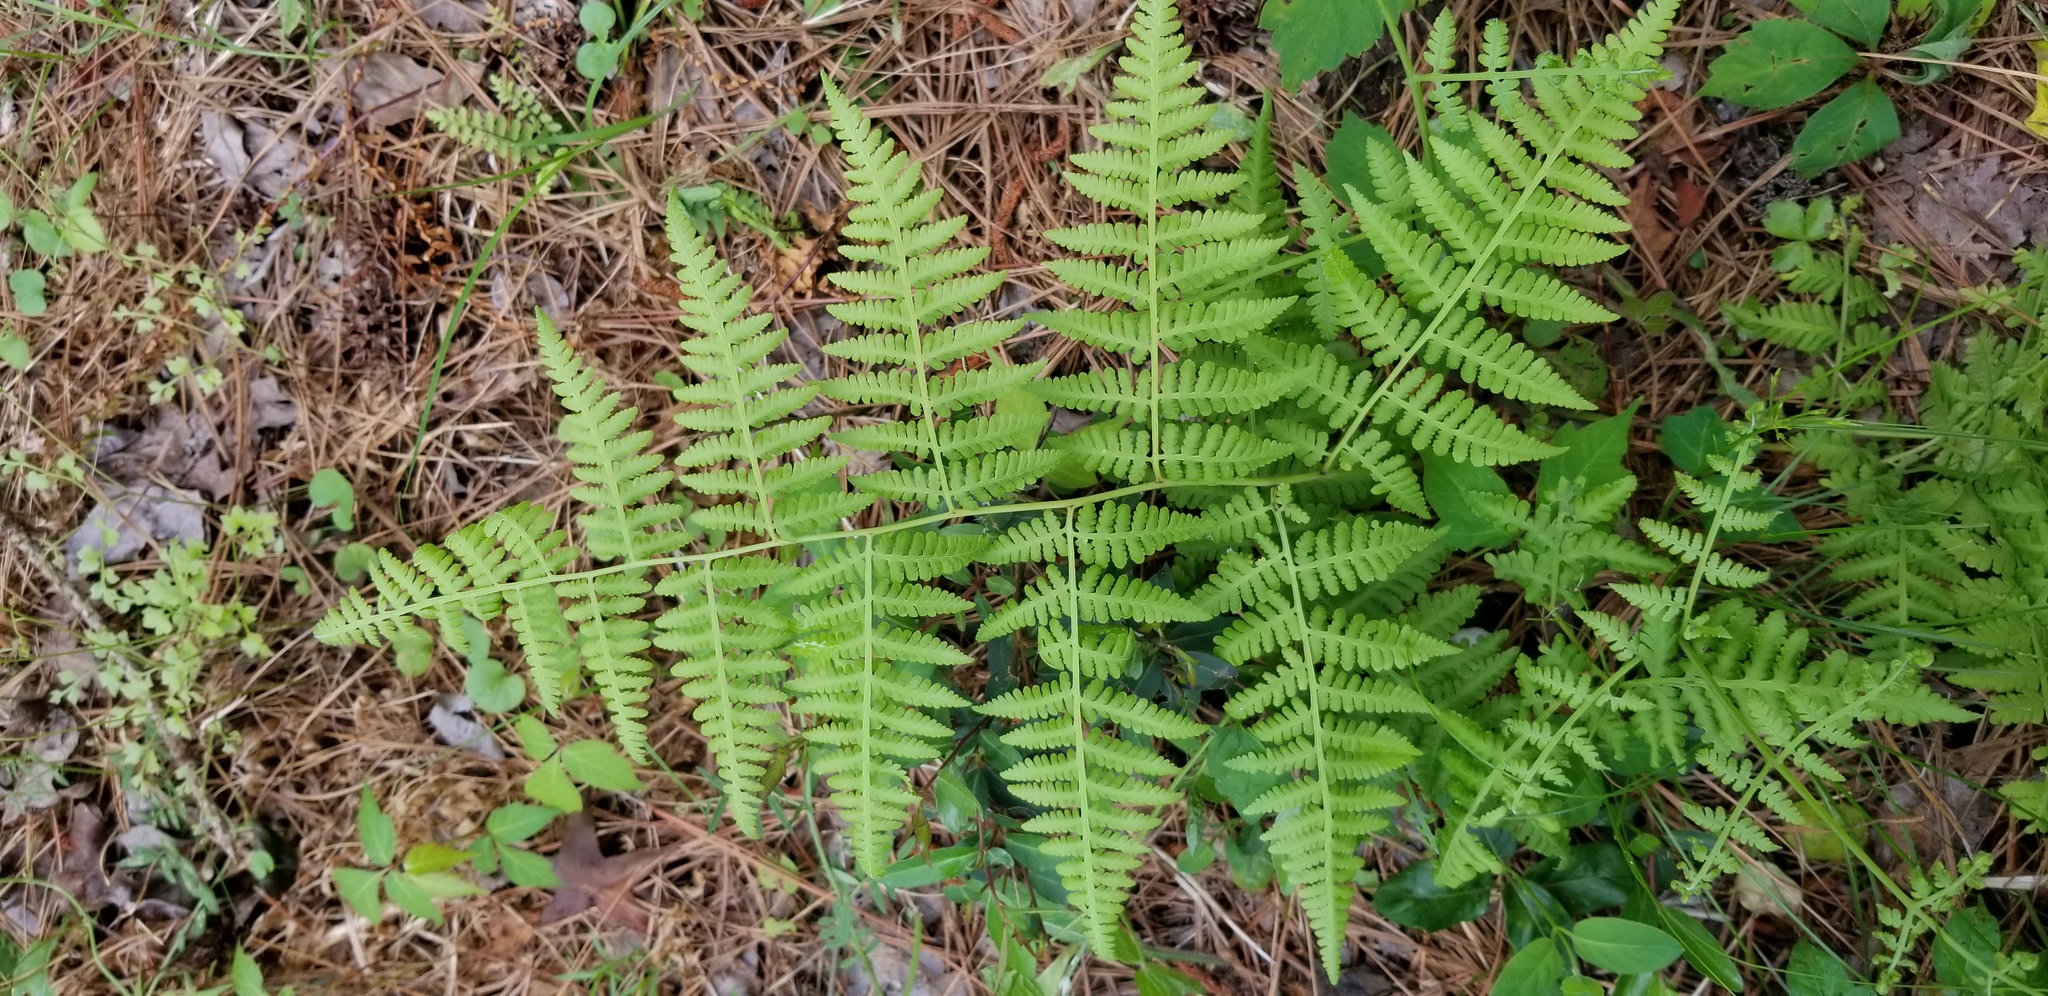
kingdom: Plantae
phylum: Tracheophyta
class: Polypodiopsida
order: Polypodiales
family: Thelypteridaceae
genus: Macrothelypteris
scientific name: Macrothelypteris torresiana
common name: Swordfern
